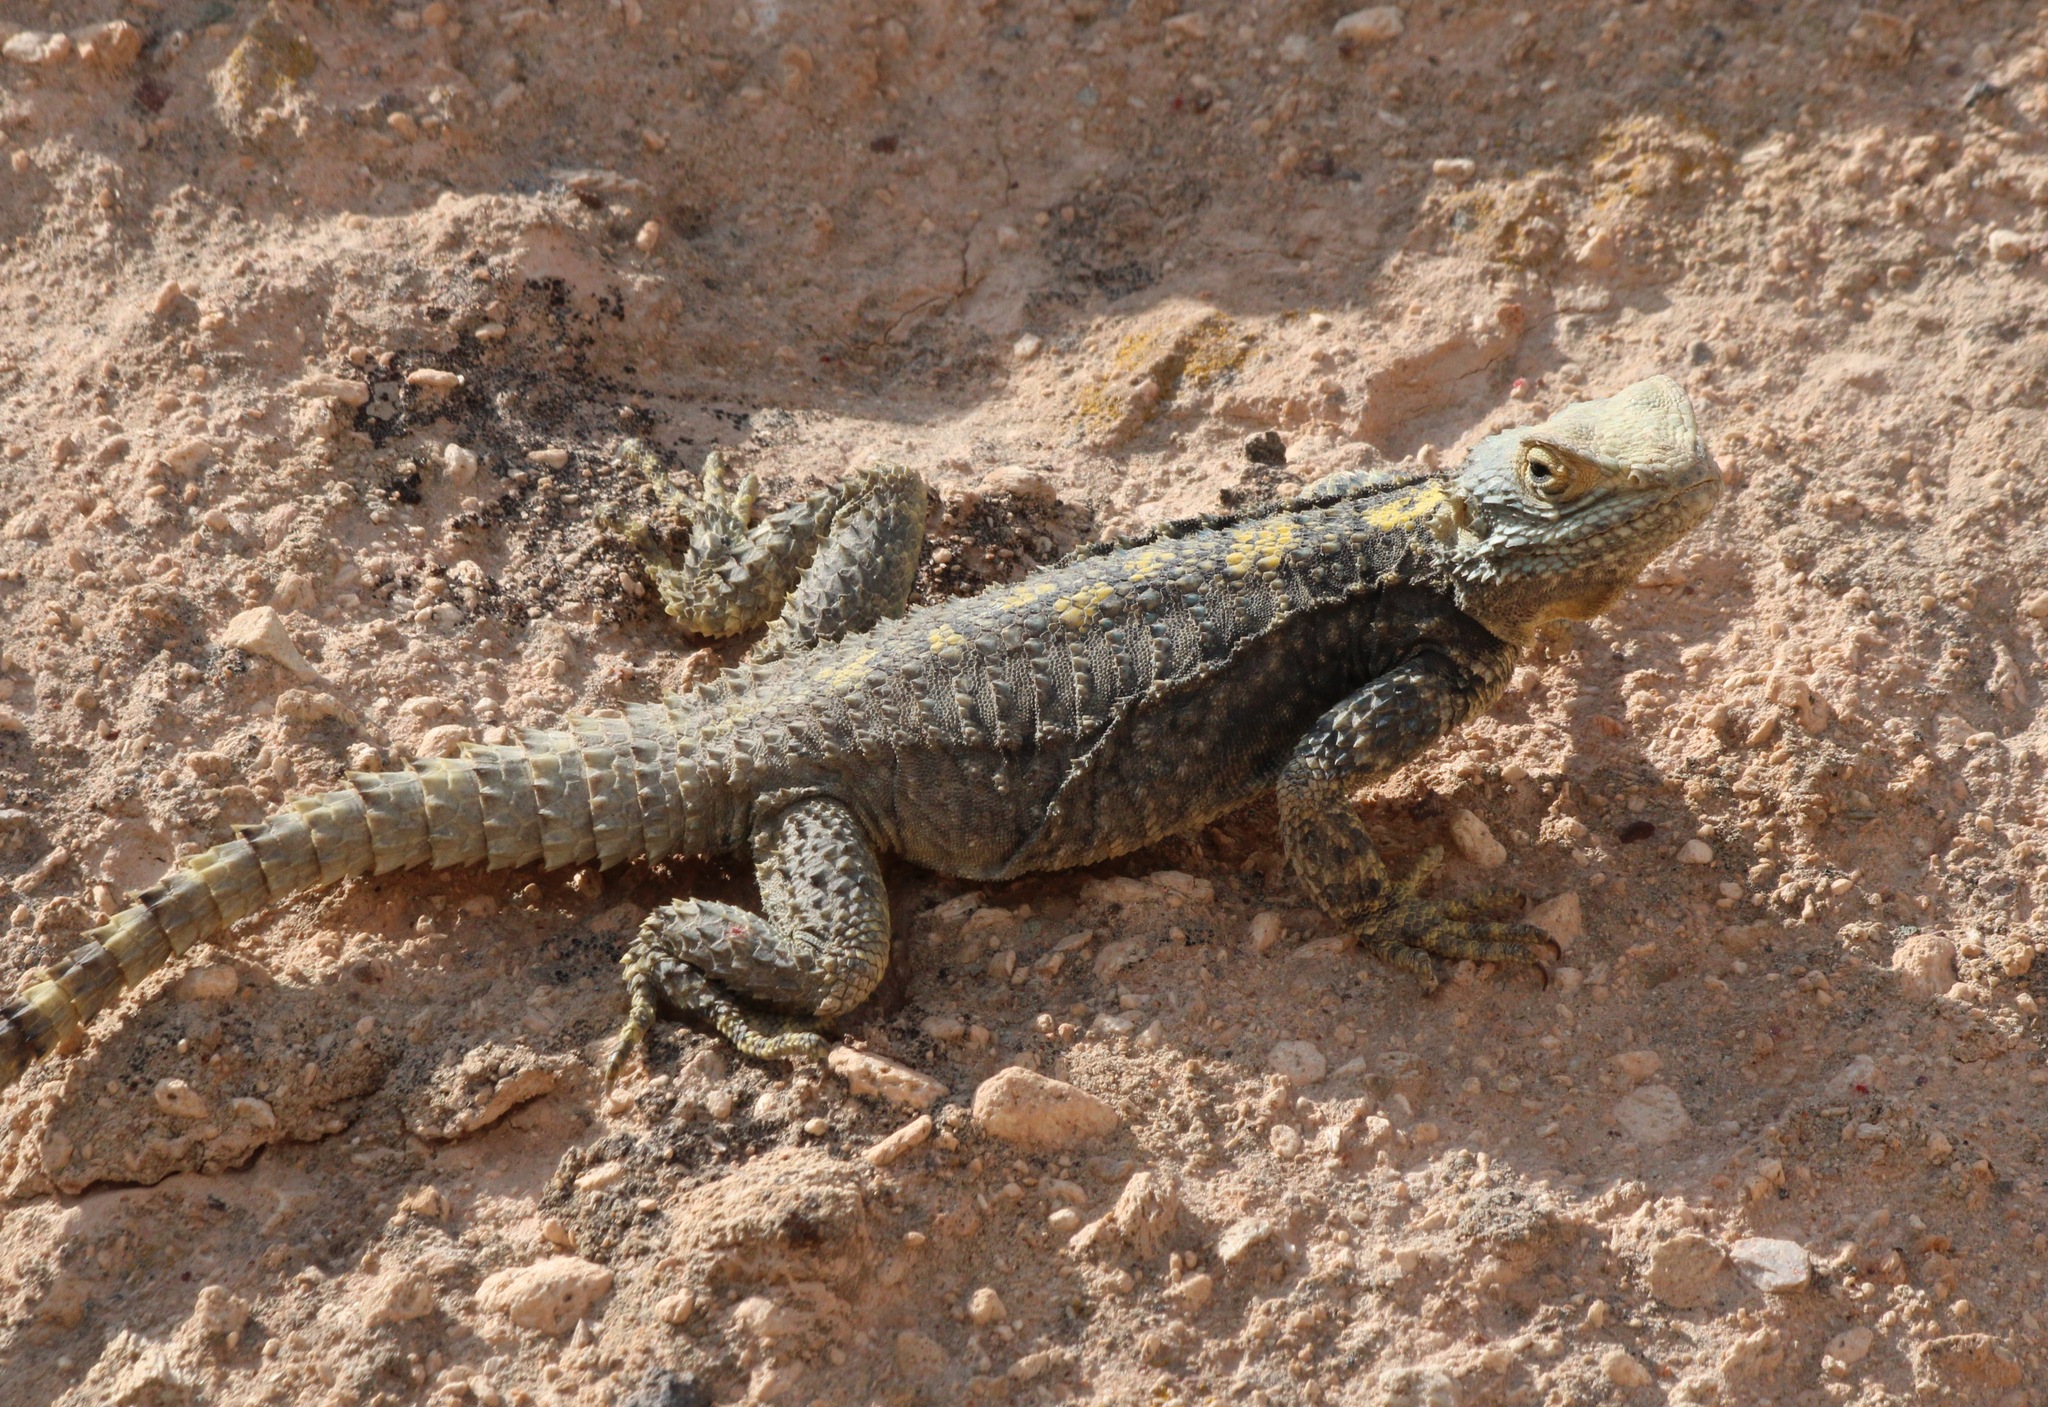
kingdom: Animalia
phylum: Chordata
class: Squamata
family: Agamidae
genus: Stellagama
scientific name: Stellagama stellio
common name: Starred agama
